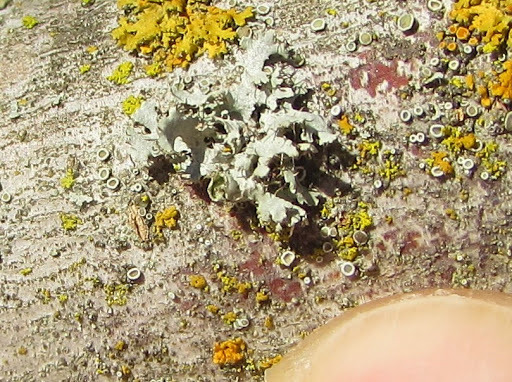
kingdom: Fungi
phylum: Ascomycota
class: Lecanoromycetes
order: Caliciales
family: Physciaceae
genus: Physcia
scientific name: Physcia adscendens
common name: Hooded rosette lichen
